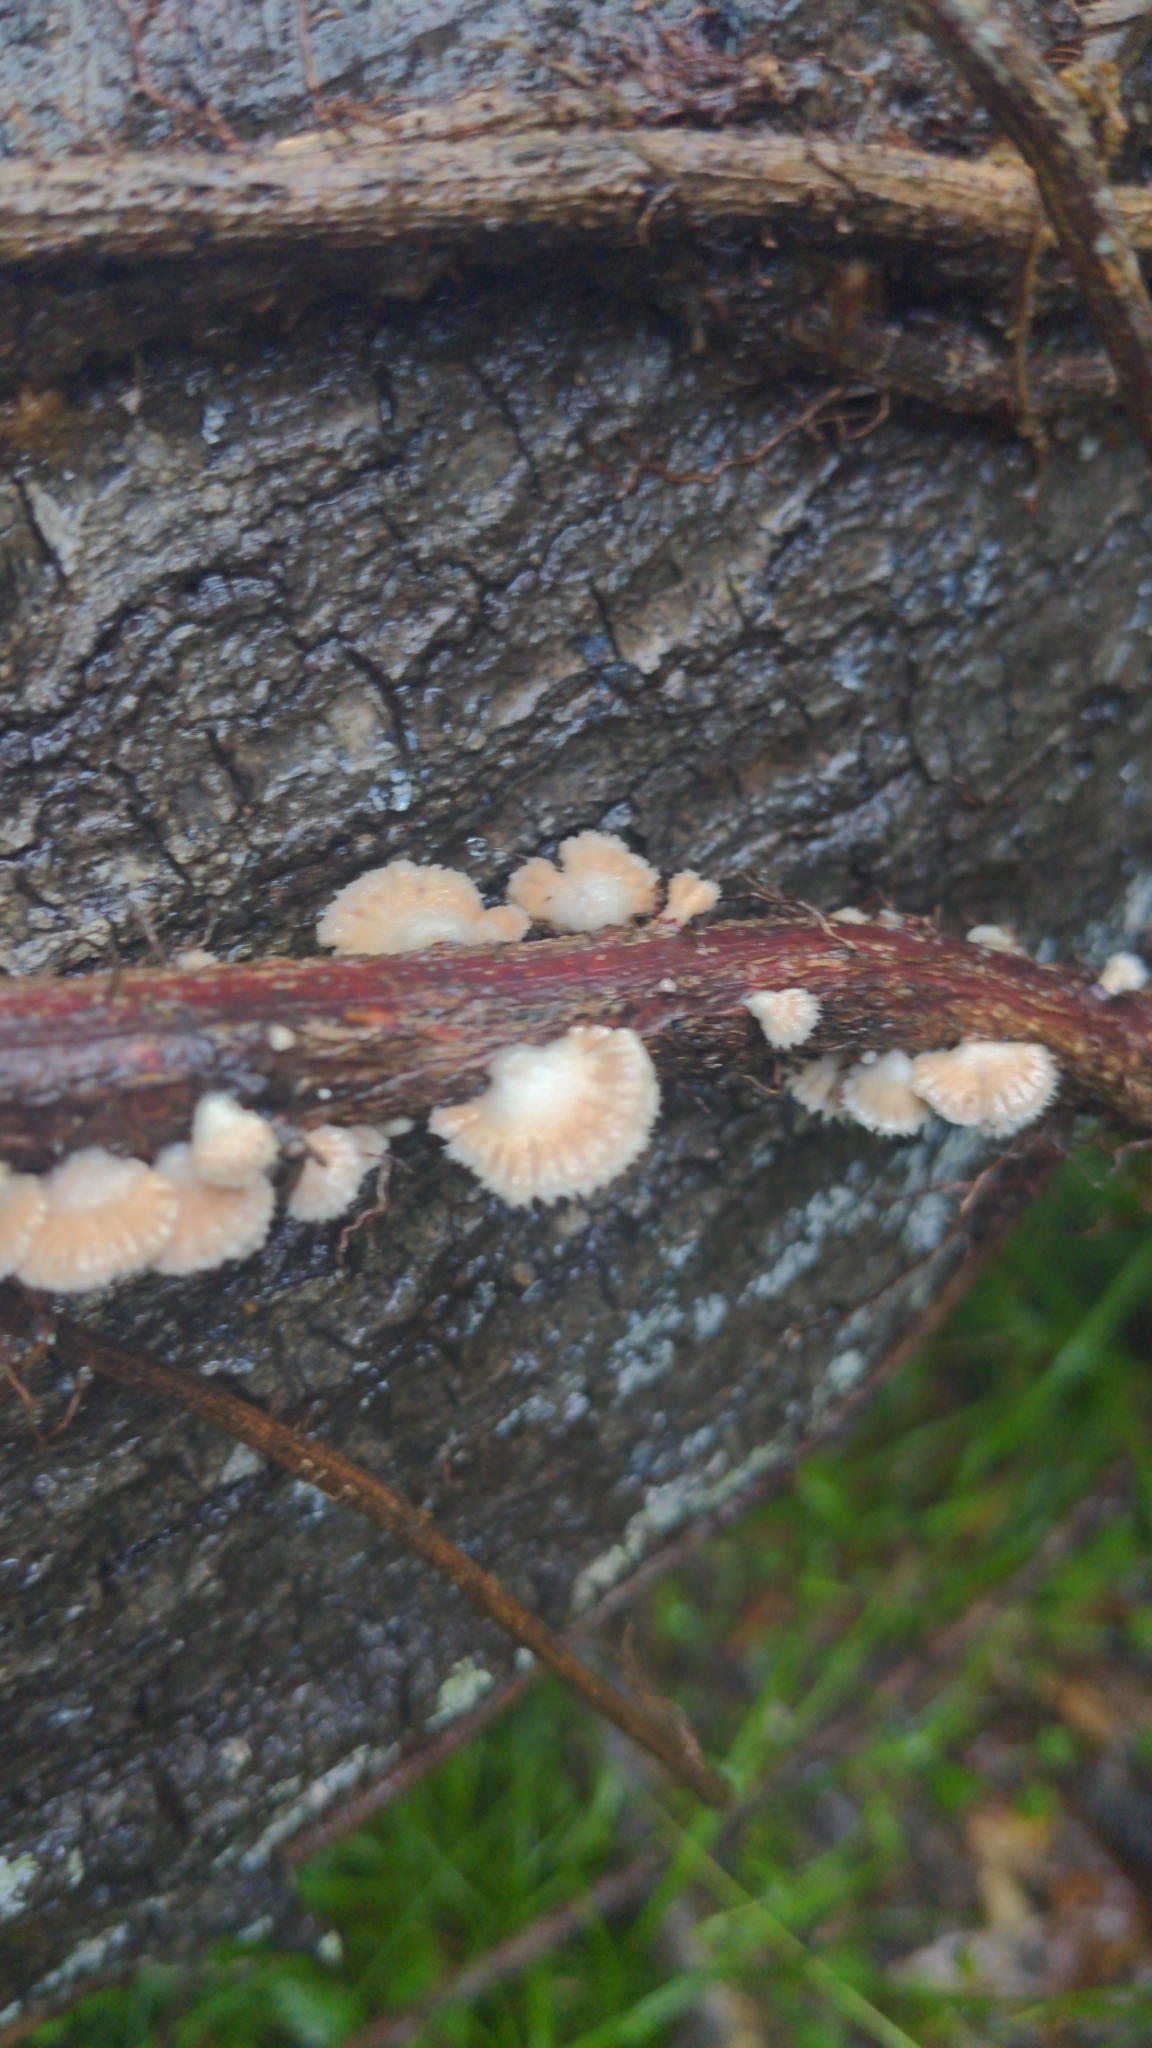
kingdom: Fungi
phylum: Basidiomycota
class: Agaricomycetes
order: Agaricales
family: Schizophyllaceae
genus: Schizophyllum
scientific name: Schizophyllum commune
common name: Common porecrust
